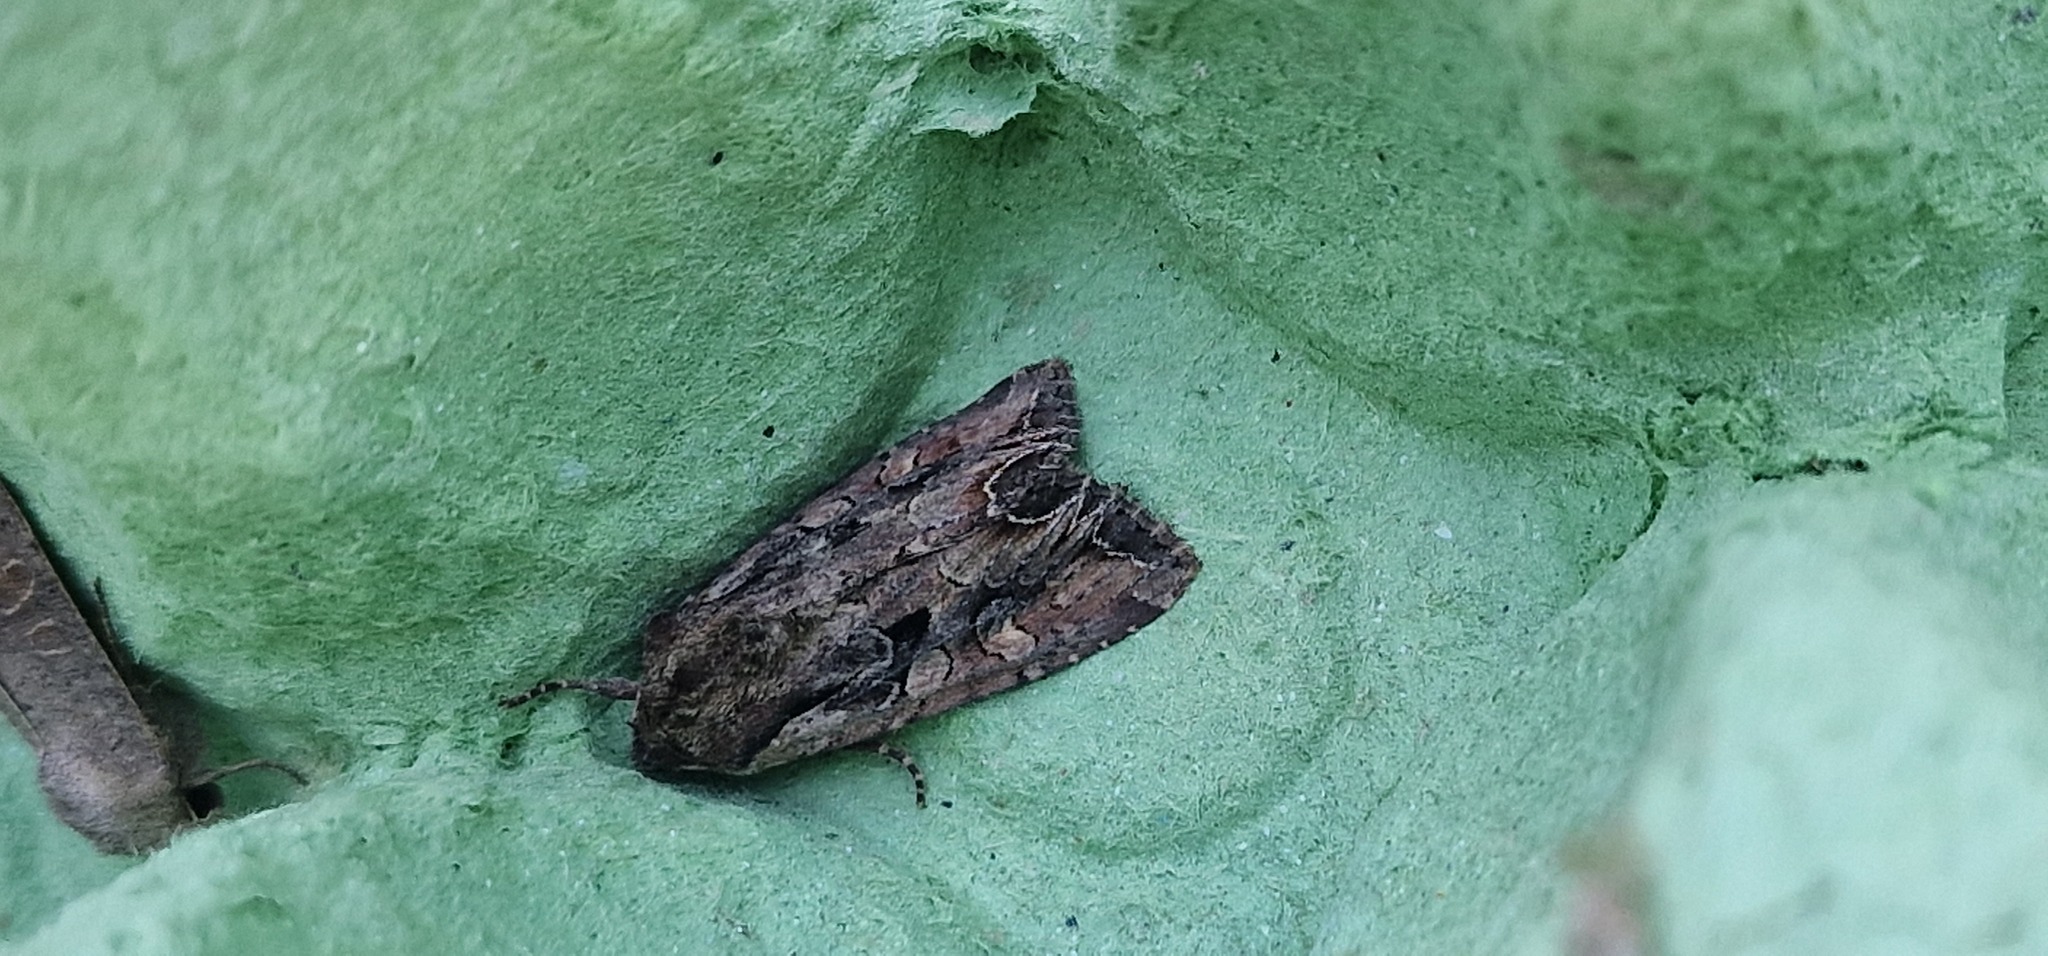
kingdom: Animalia
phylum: Arthropoda
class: Insecta
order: Lepidoptera
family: Noctuidae
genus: Lacanobia
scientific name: Lacanobia suasa
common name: Dog's tooth
